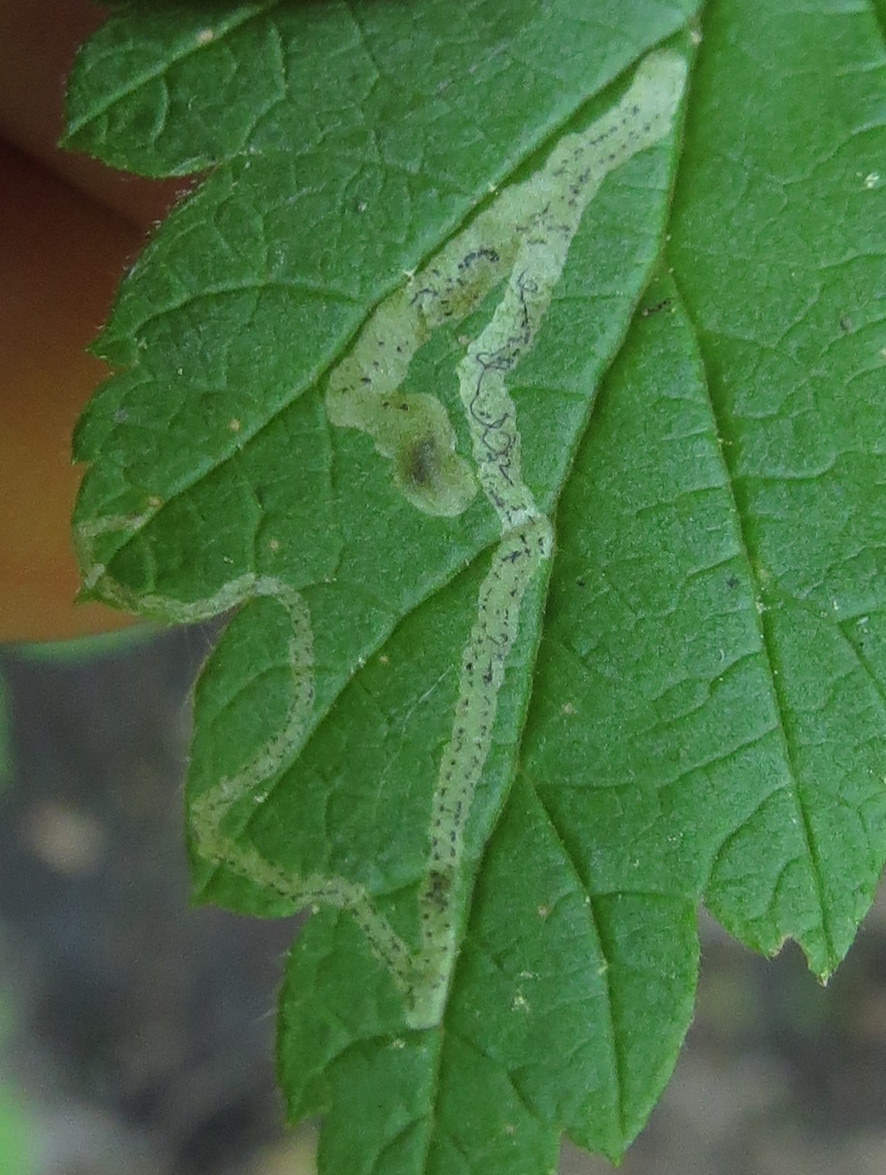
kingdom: Animalia
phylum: Arthropoda
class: Insecta
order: Diptera
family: Agromyzidae
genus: Agromyza
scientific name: Agromyza vockerothi
